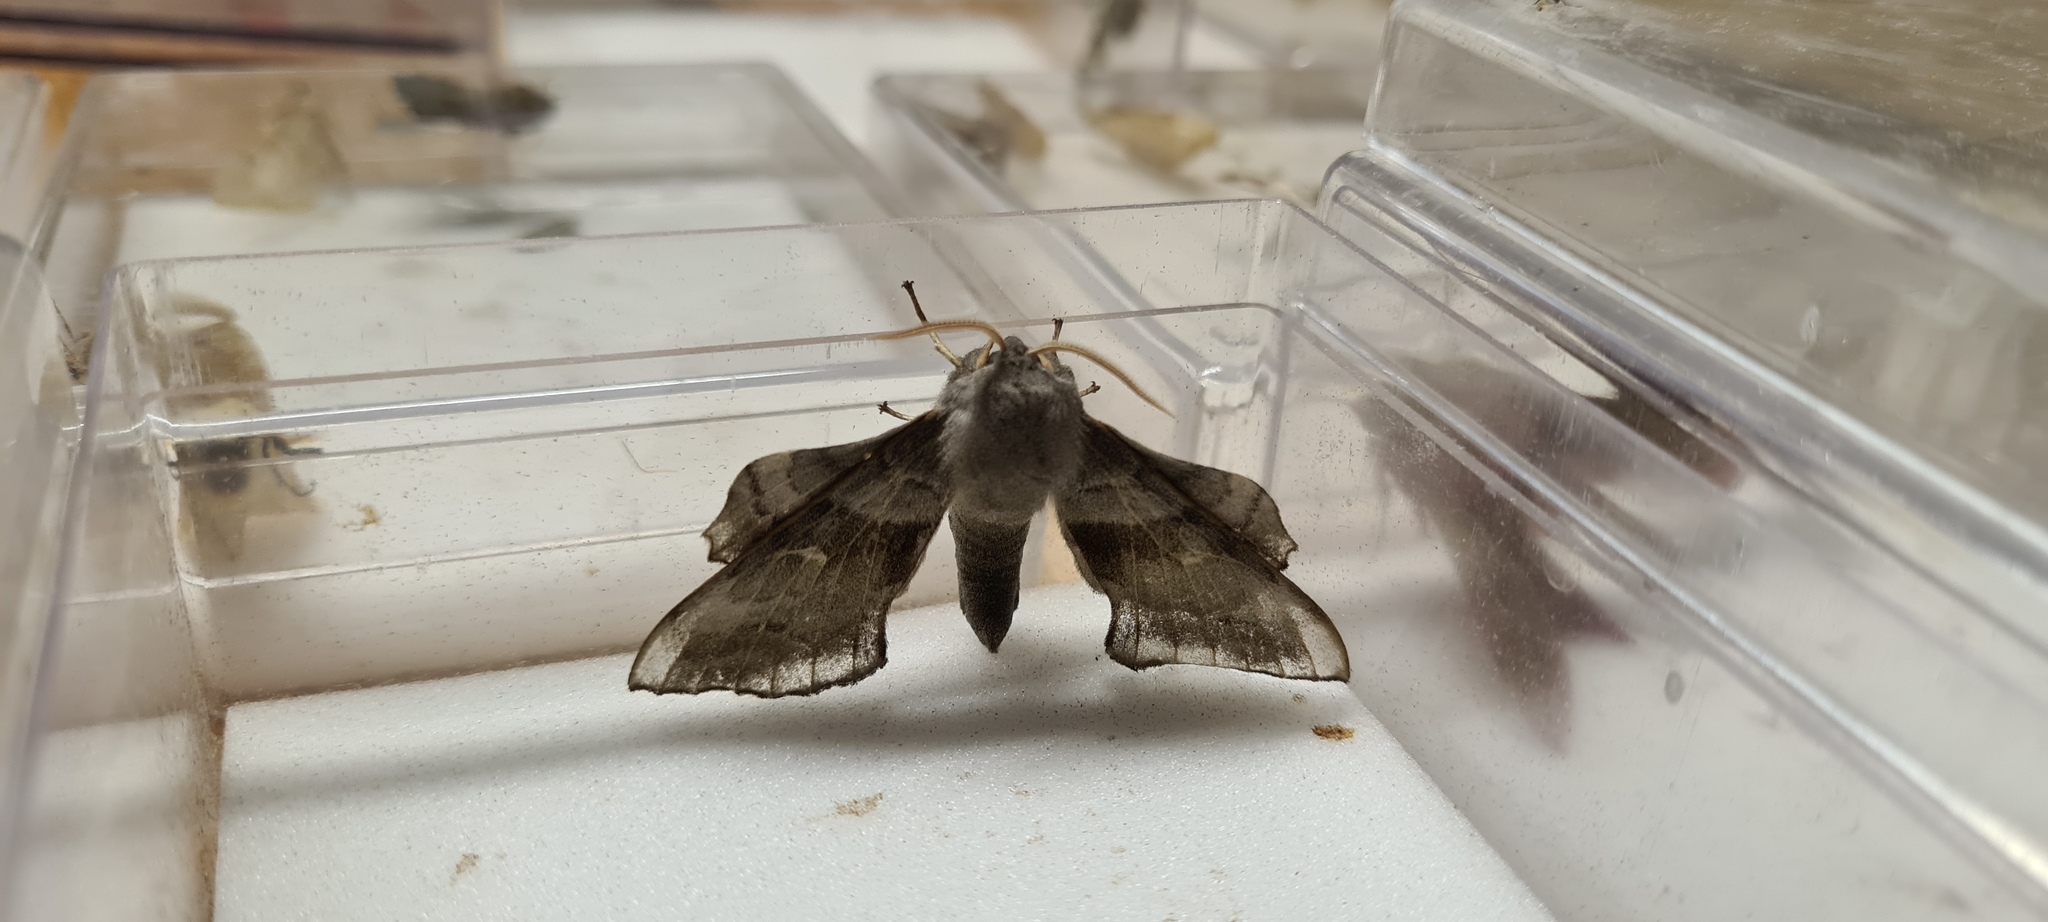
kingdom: Animalia
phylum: Arthropoda
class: Insecta
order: Lepidoptera
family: Sphingidae
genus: Laothoe
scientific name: Laothoe populi
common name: Poplar hawk-moth
